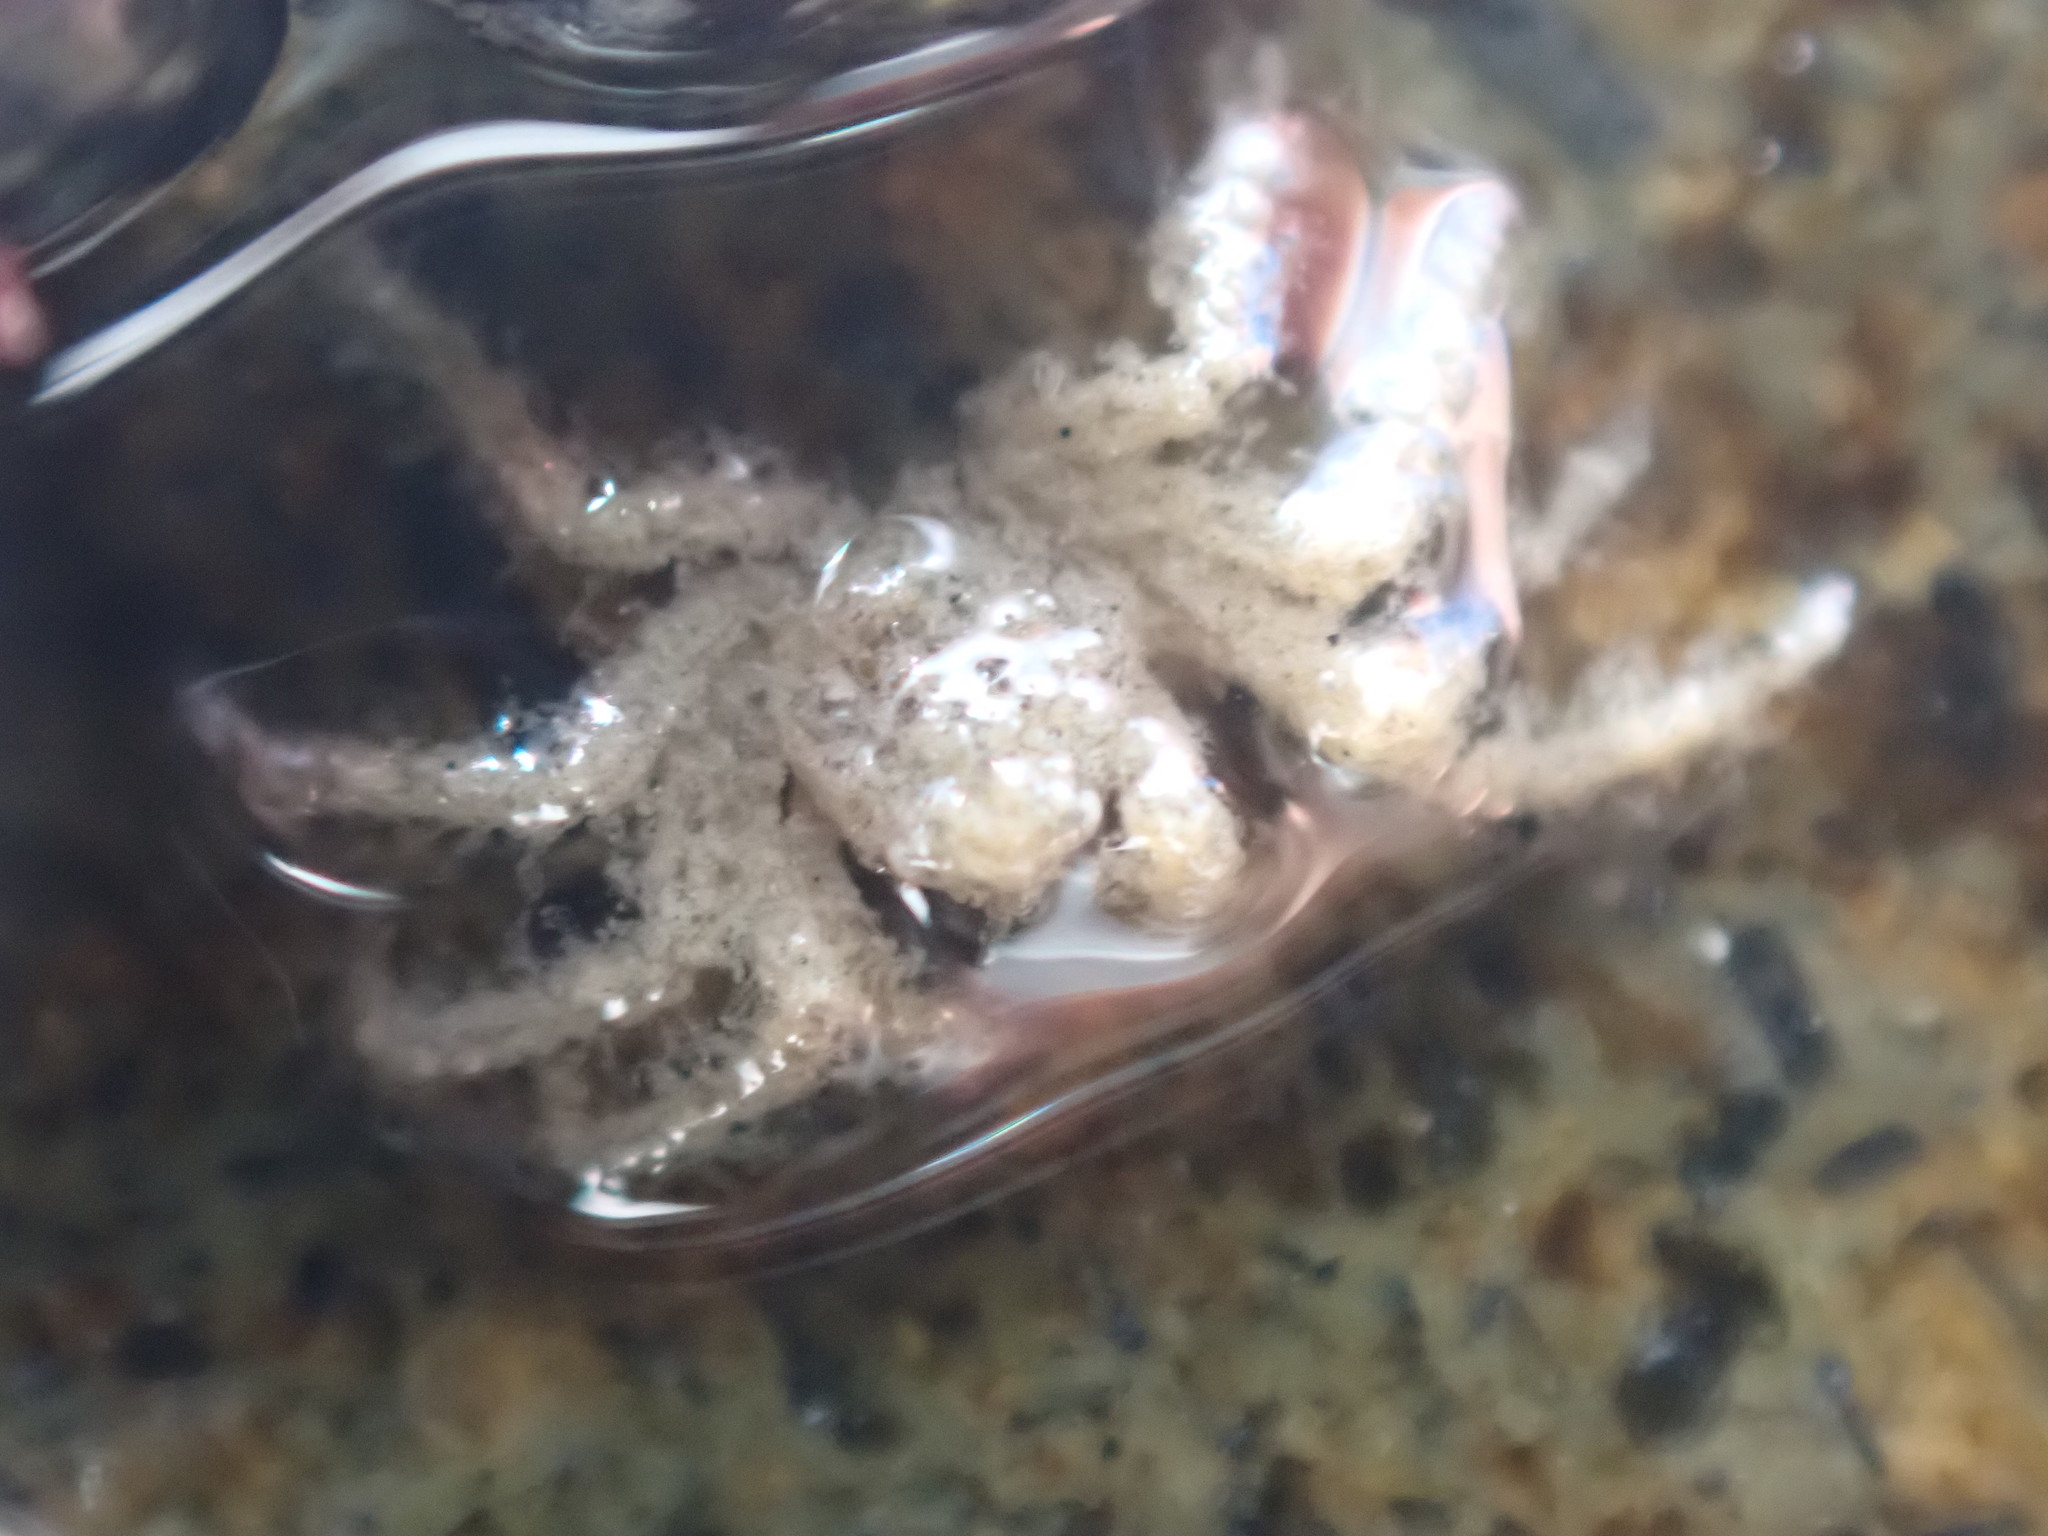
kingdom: Animalia
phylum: Arthropoda
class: Malacostraca
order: Decapoda
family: Hymenosomatidae
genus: Neohymenicus
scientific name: Neohymenicus pubescens
